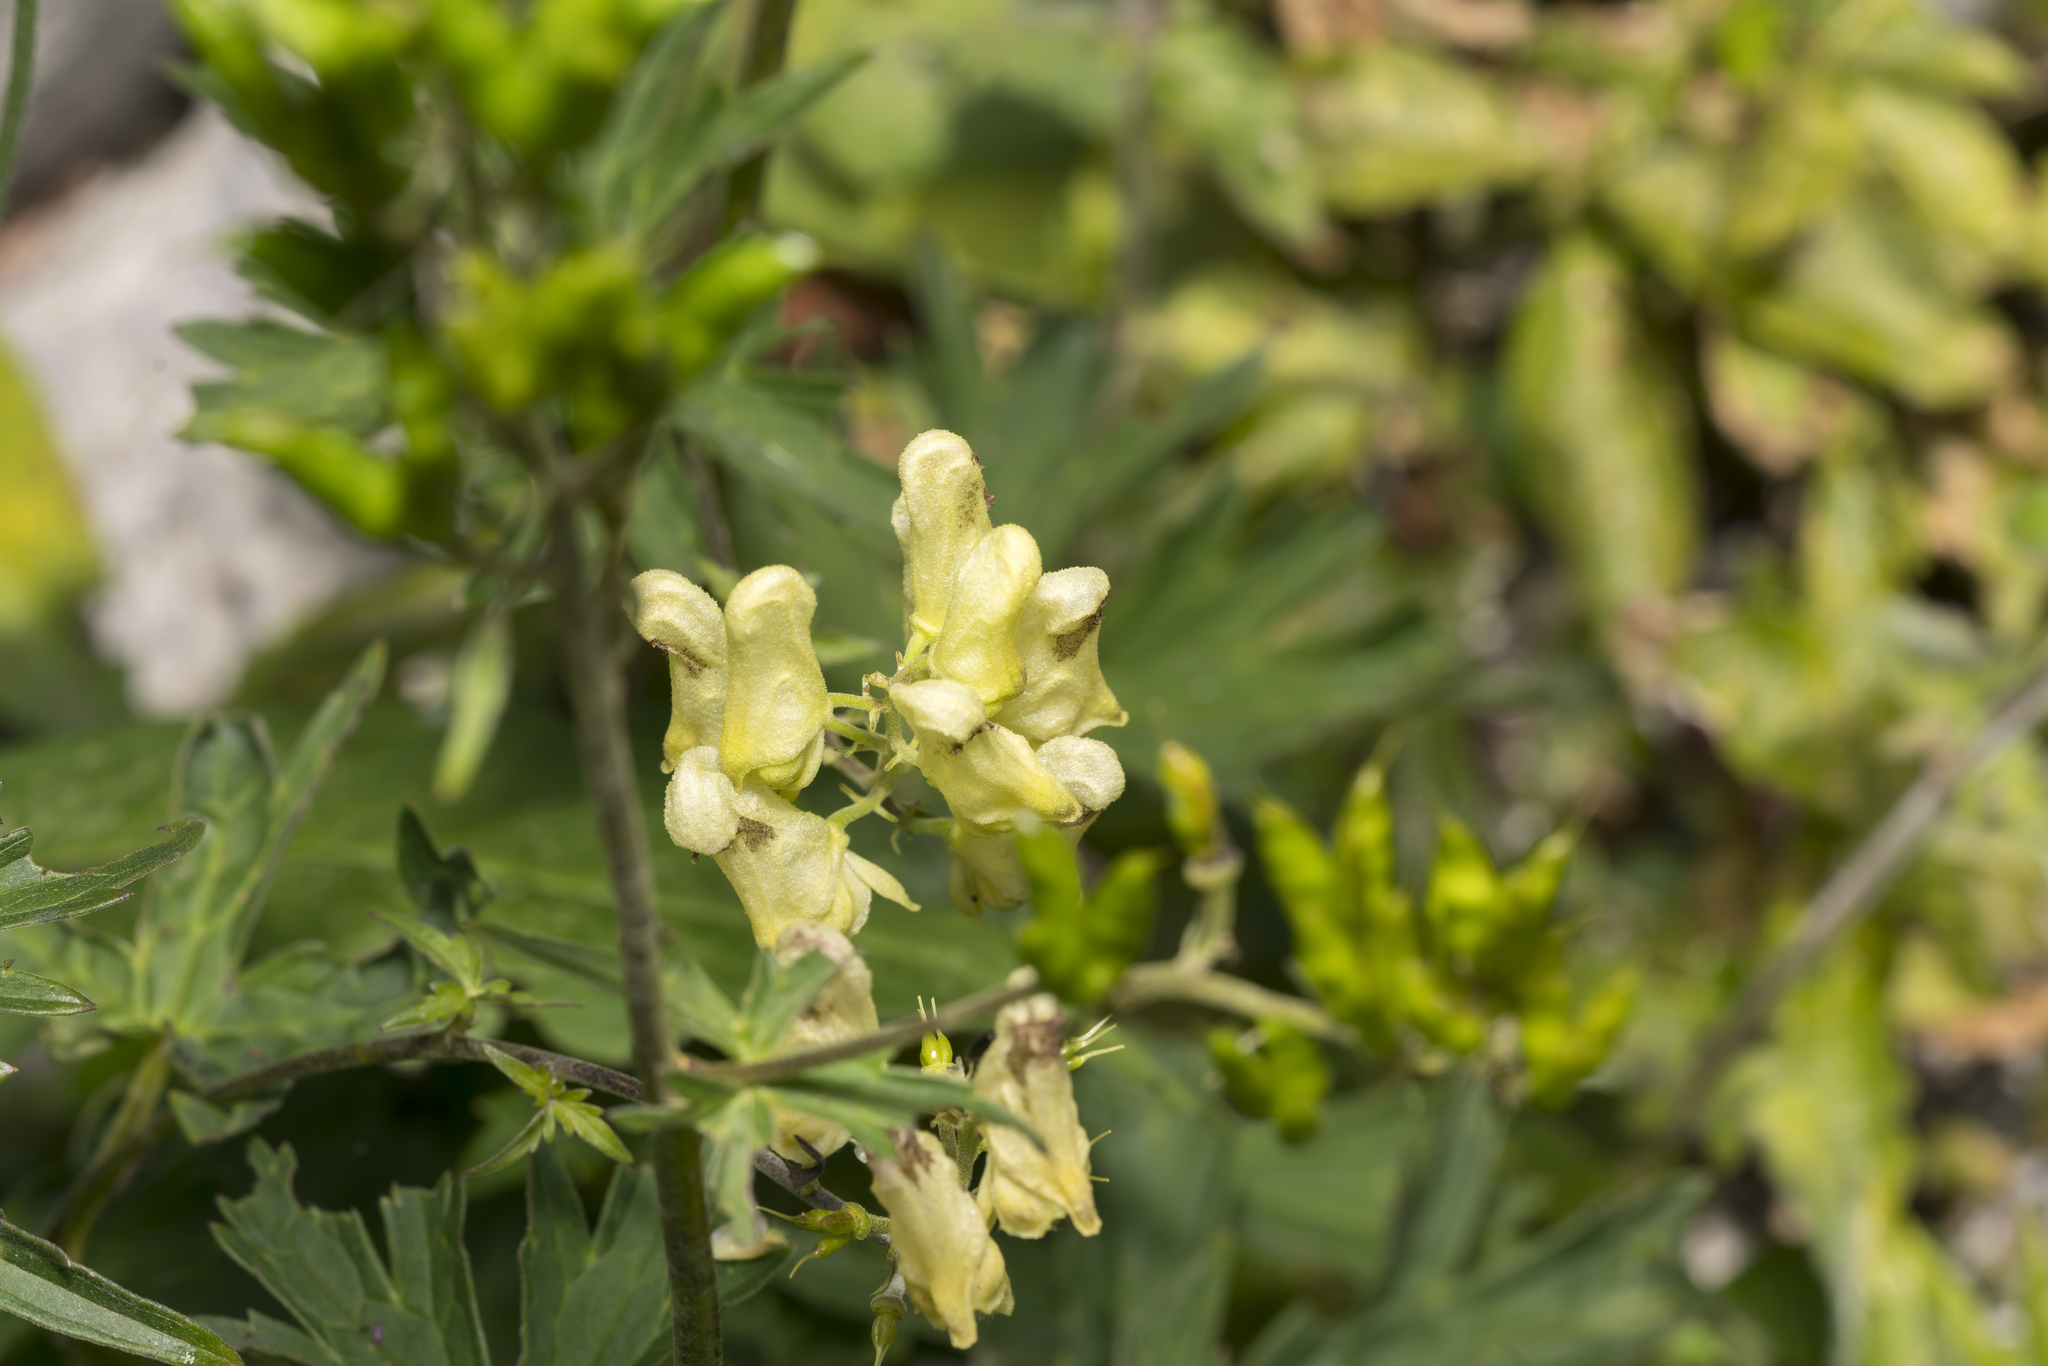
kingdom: Plantae
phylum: Tracheophyta
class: Magnoliopsida
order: Ranunculales
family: Ranunculaceae
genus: Aconitum
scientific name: Aconitum lycoctonum
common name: Wolf's-bane
